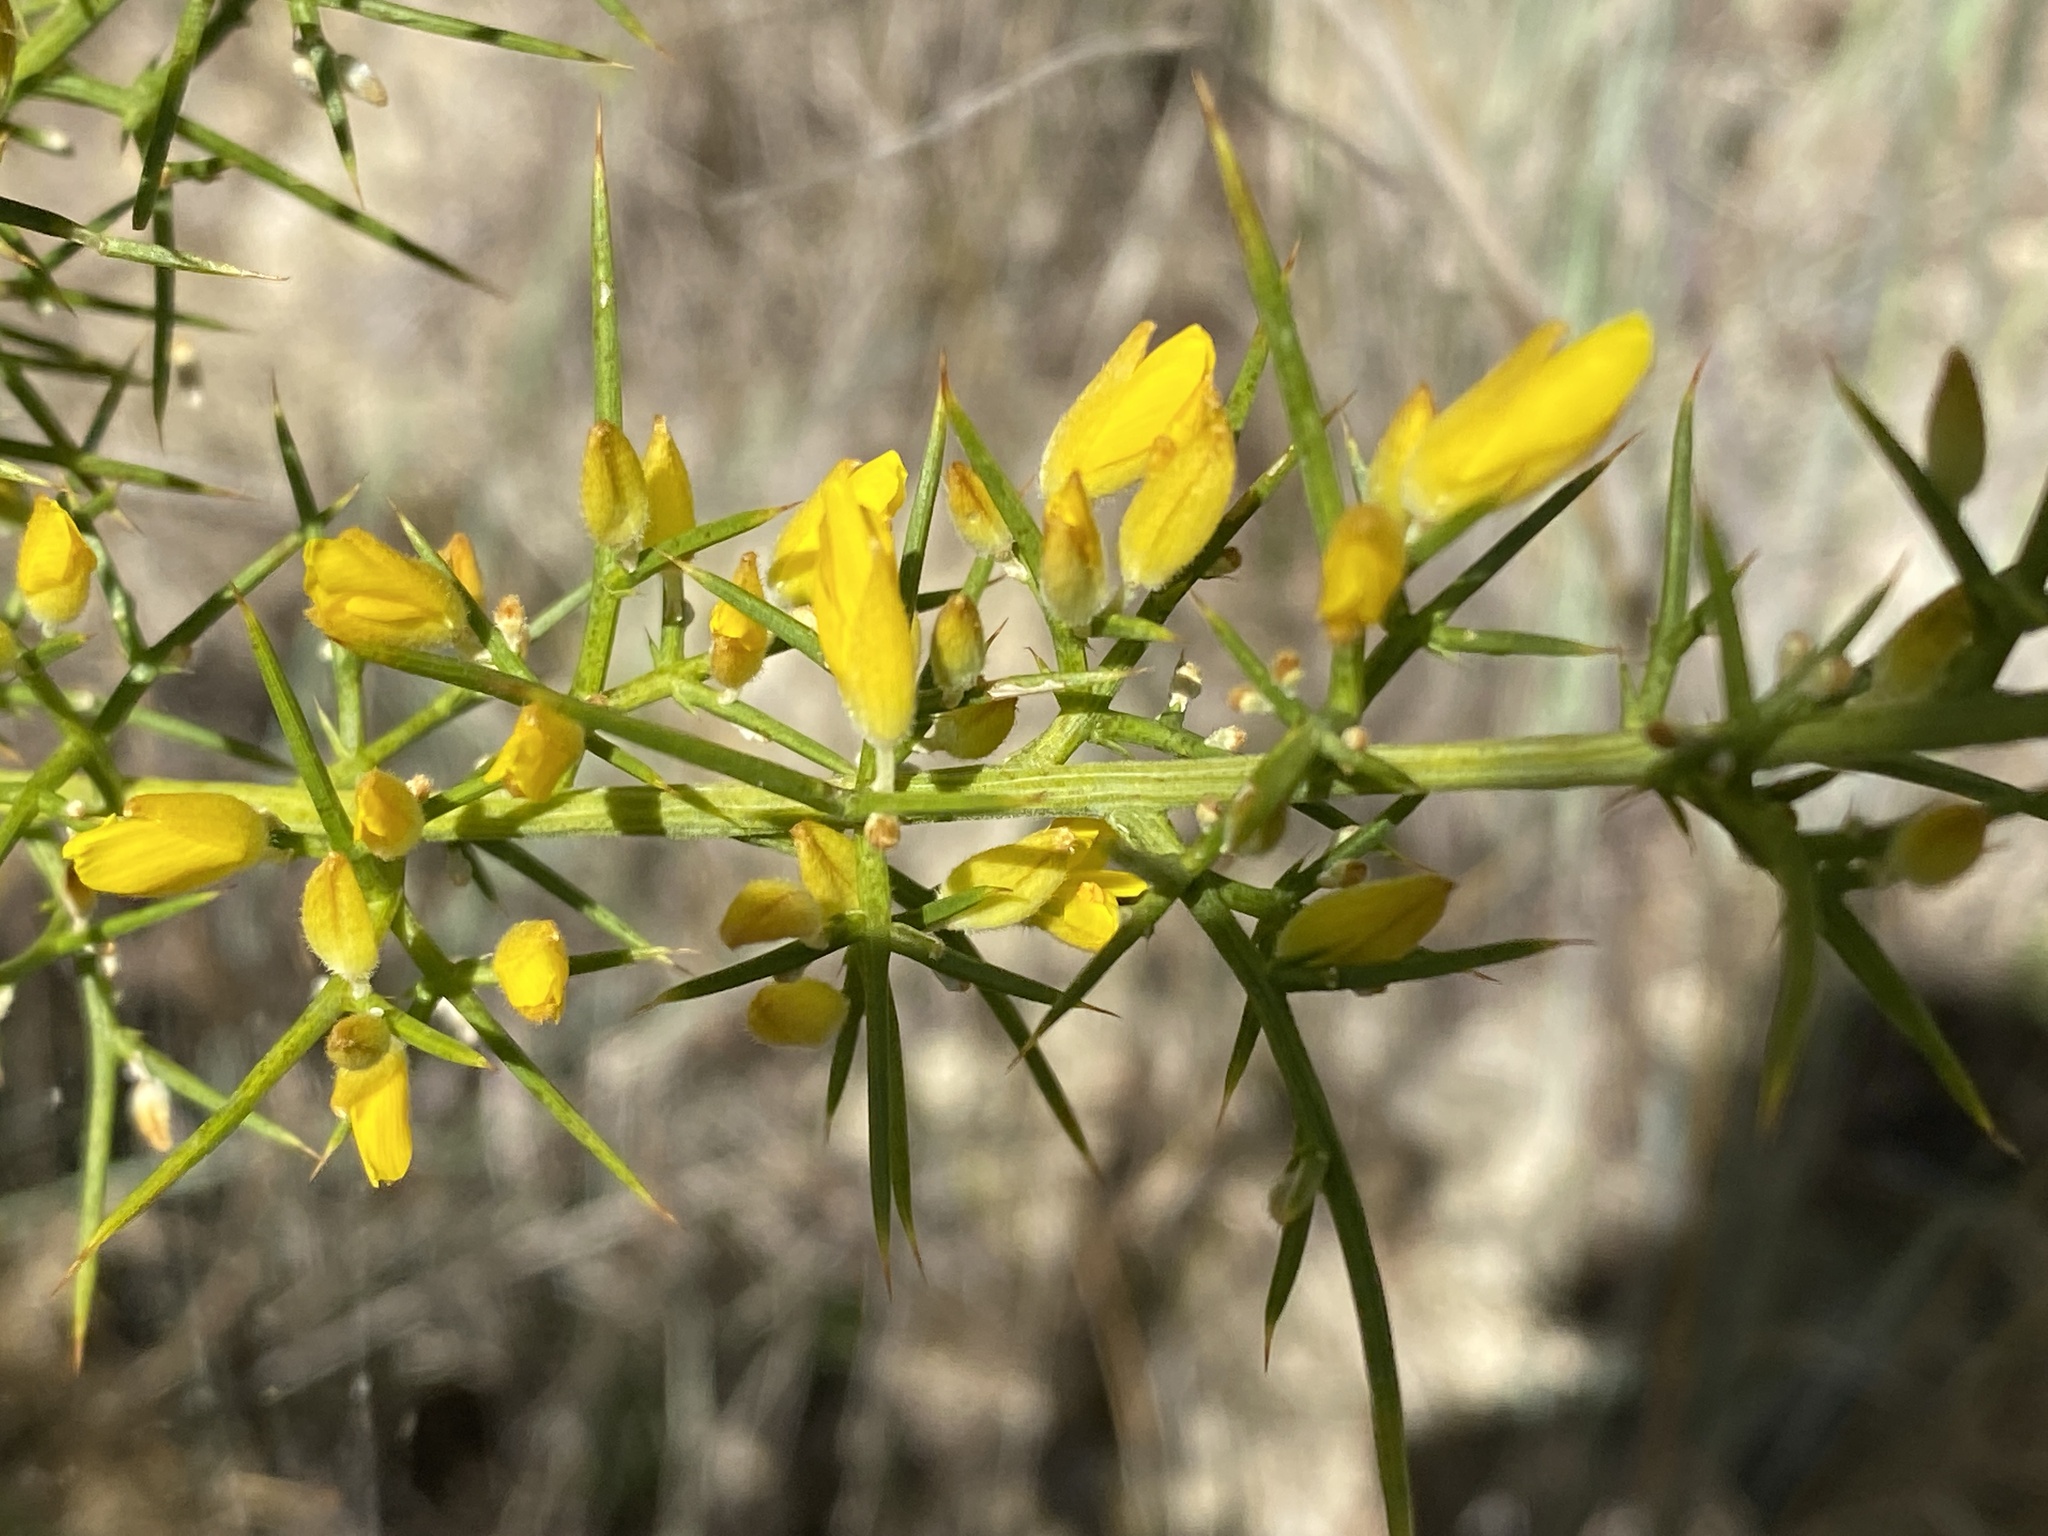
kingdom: Plantae
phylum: Tracheophyta
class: Magnoliopsida
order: Fabales
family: Fabaceae
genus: Ulex
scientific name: Ulex parviflorus
